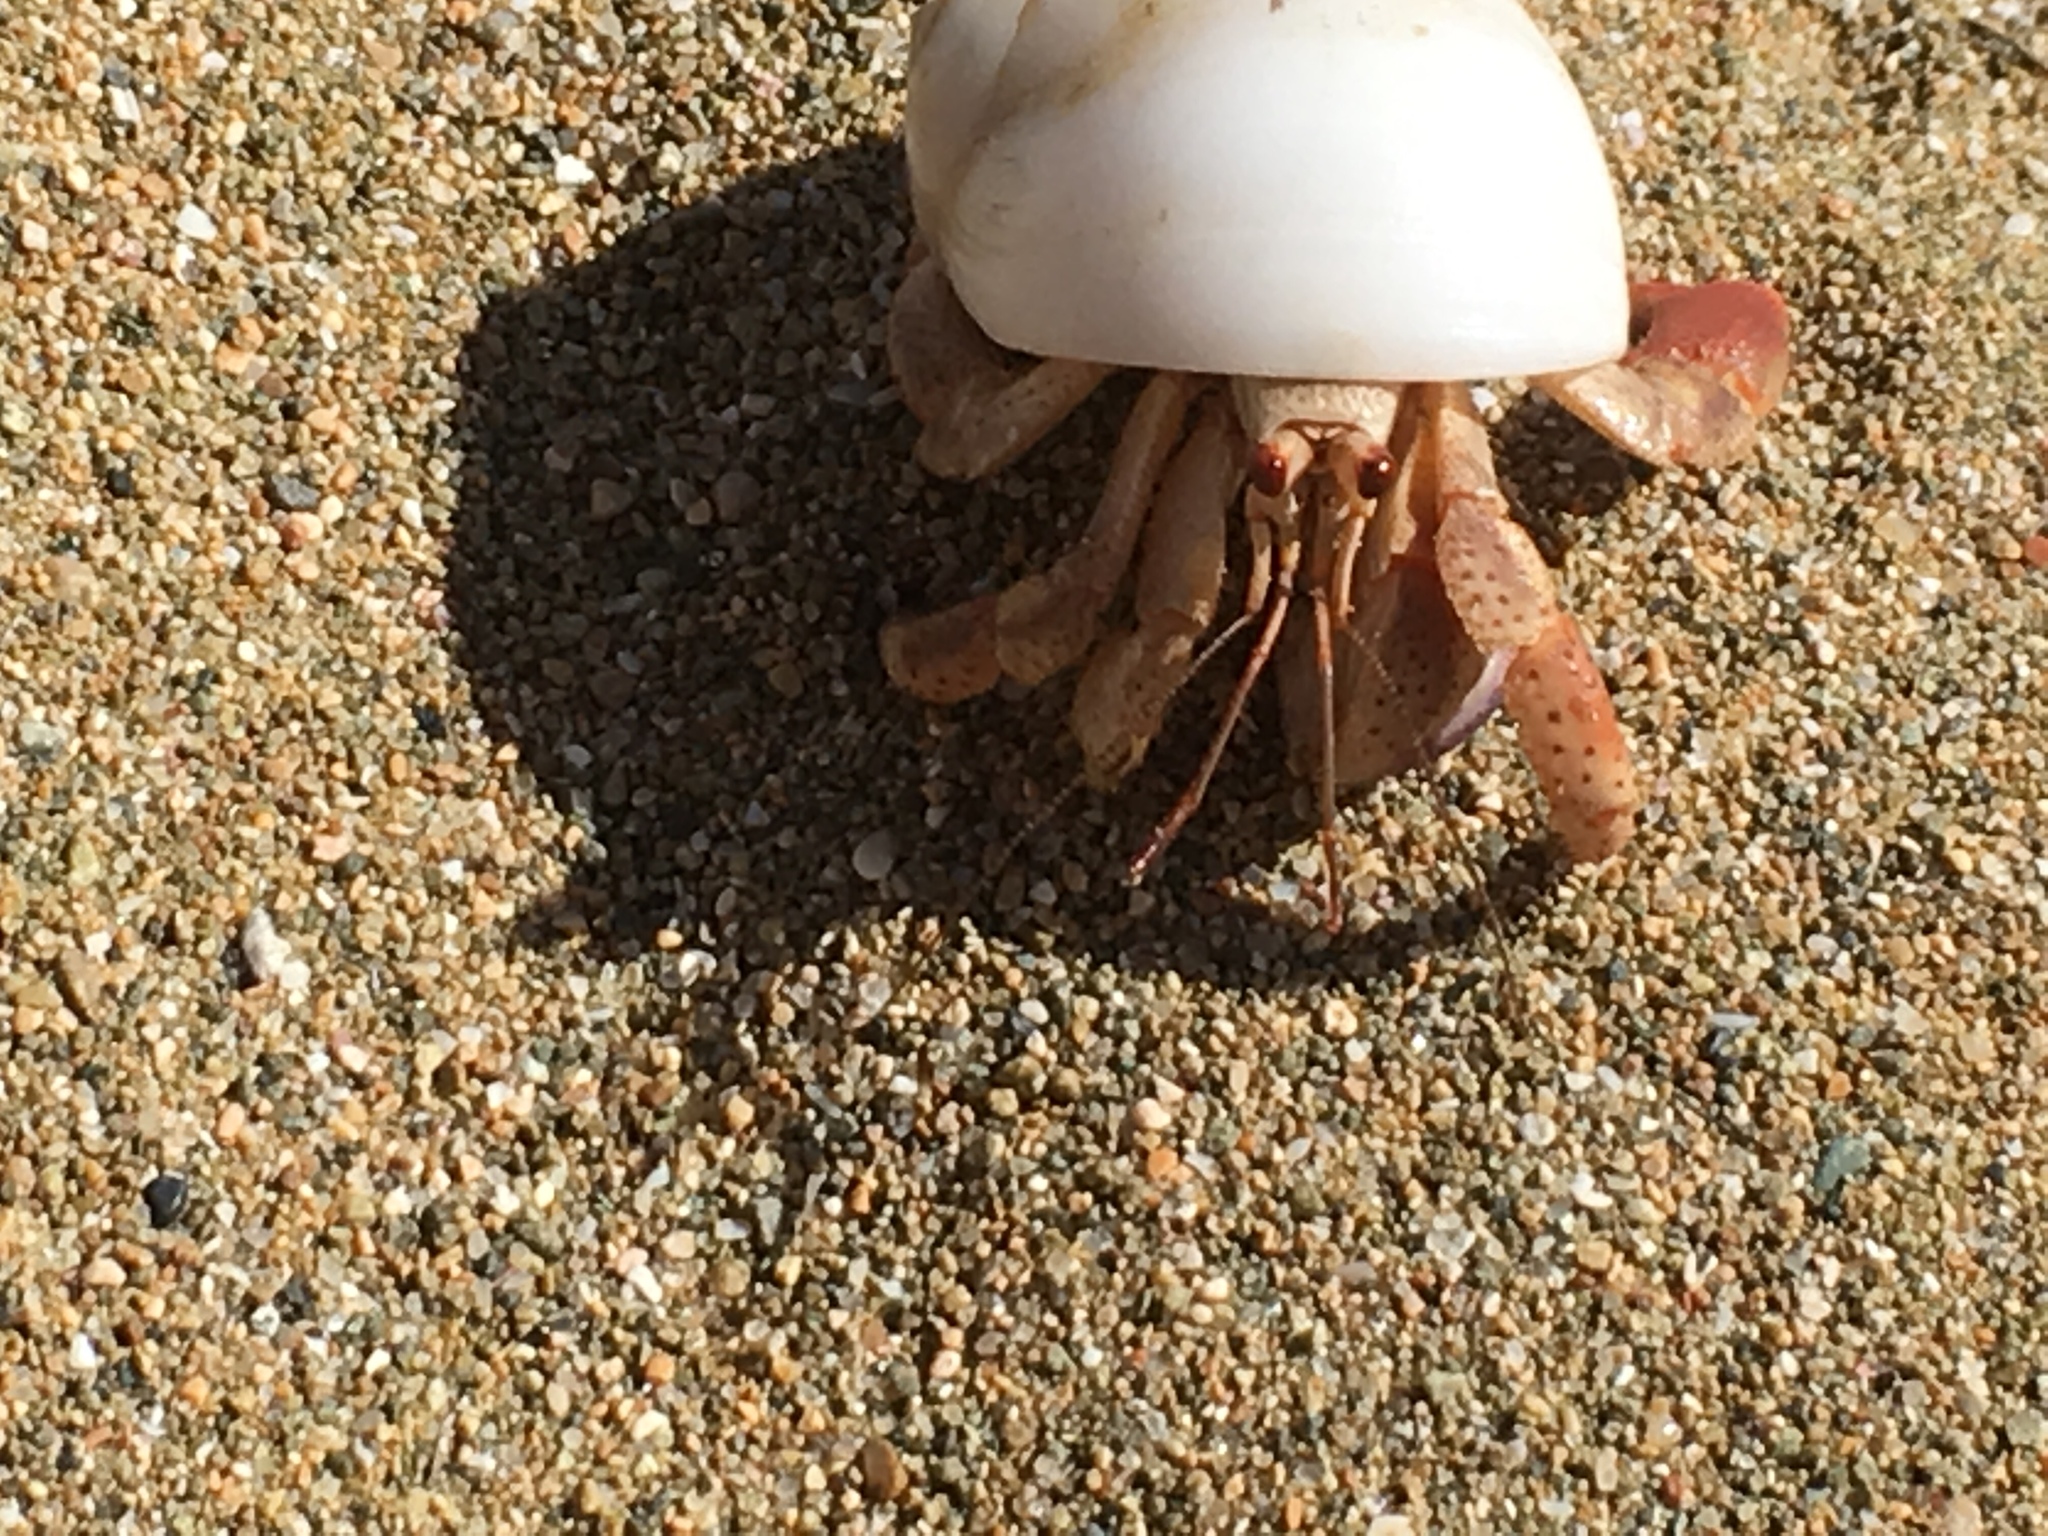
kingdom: Animalia
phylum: Arthropoda
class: Malacostraca
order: Decapoda
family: Coenobitidae
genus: Coenobita
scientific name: Coenobita clypeatus
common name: Caribbean hermit crab
